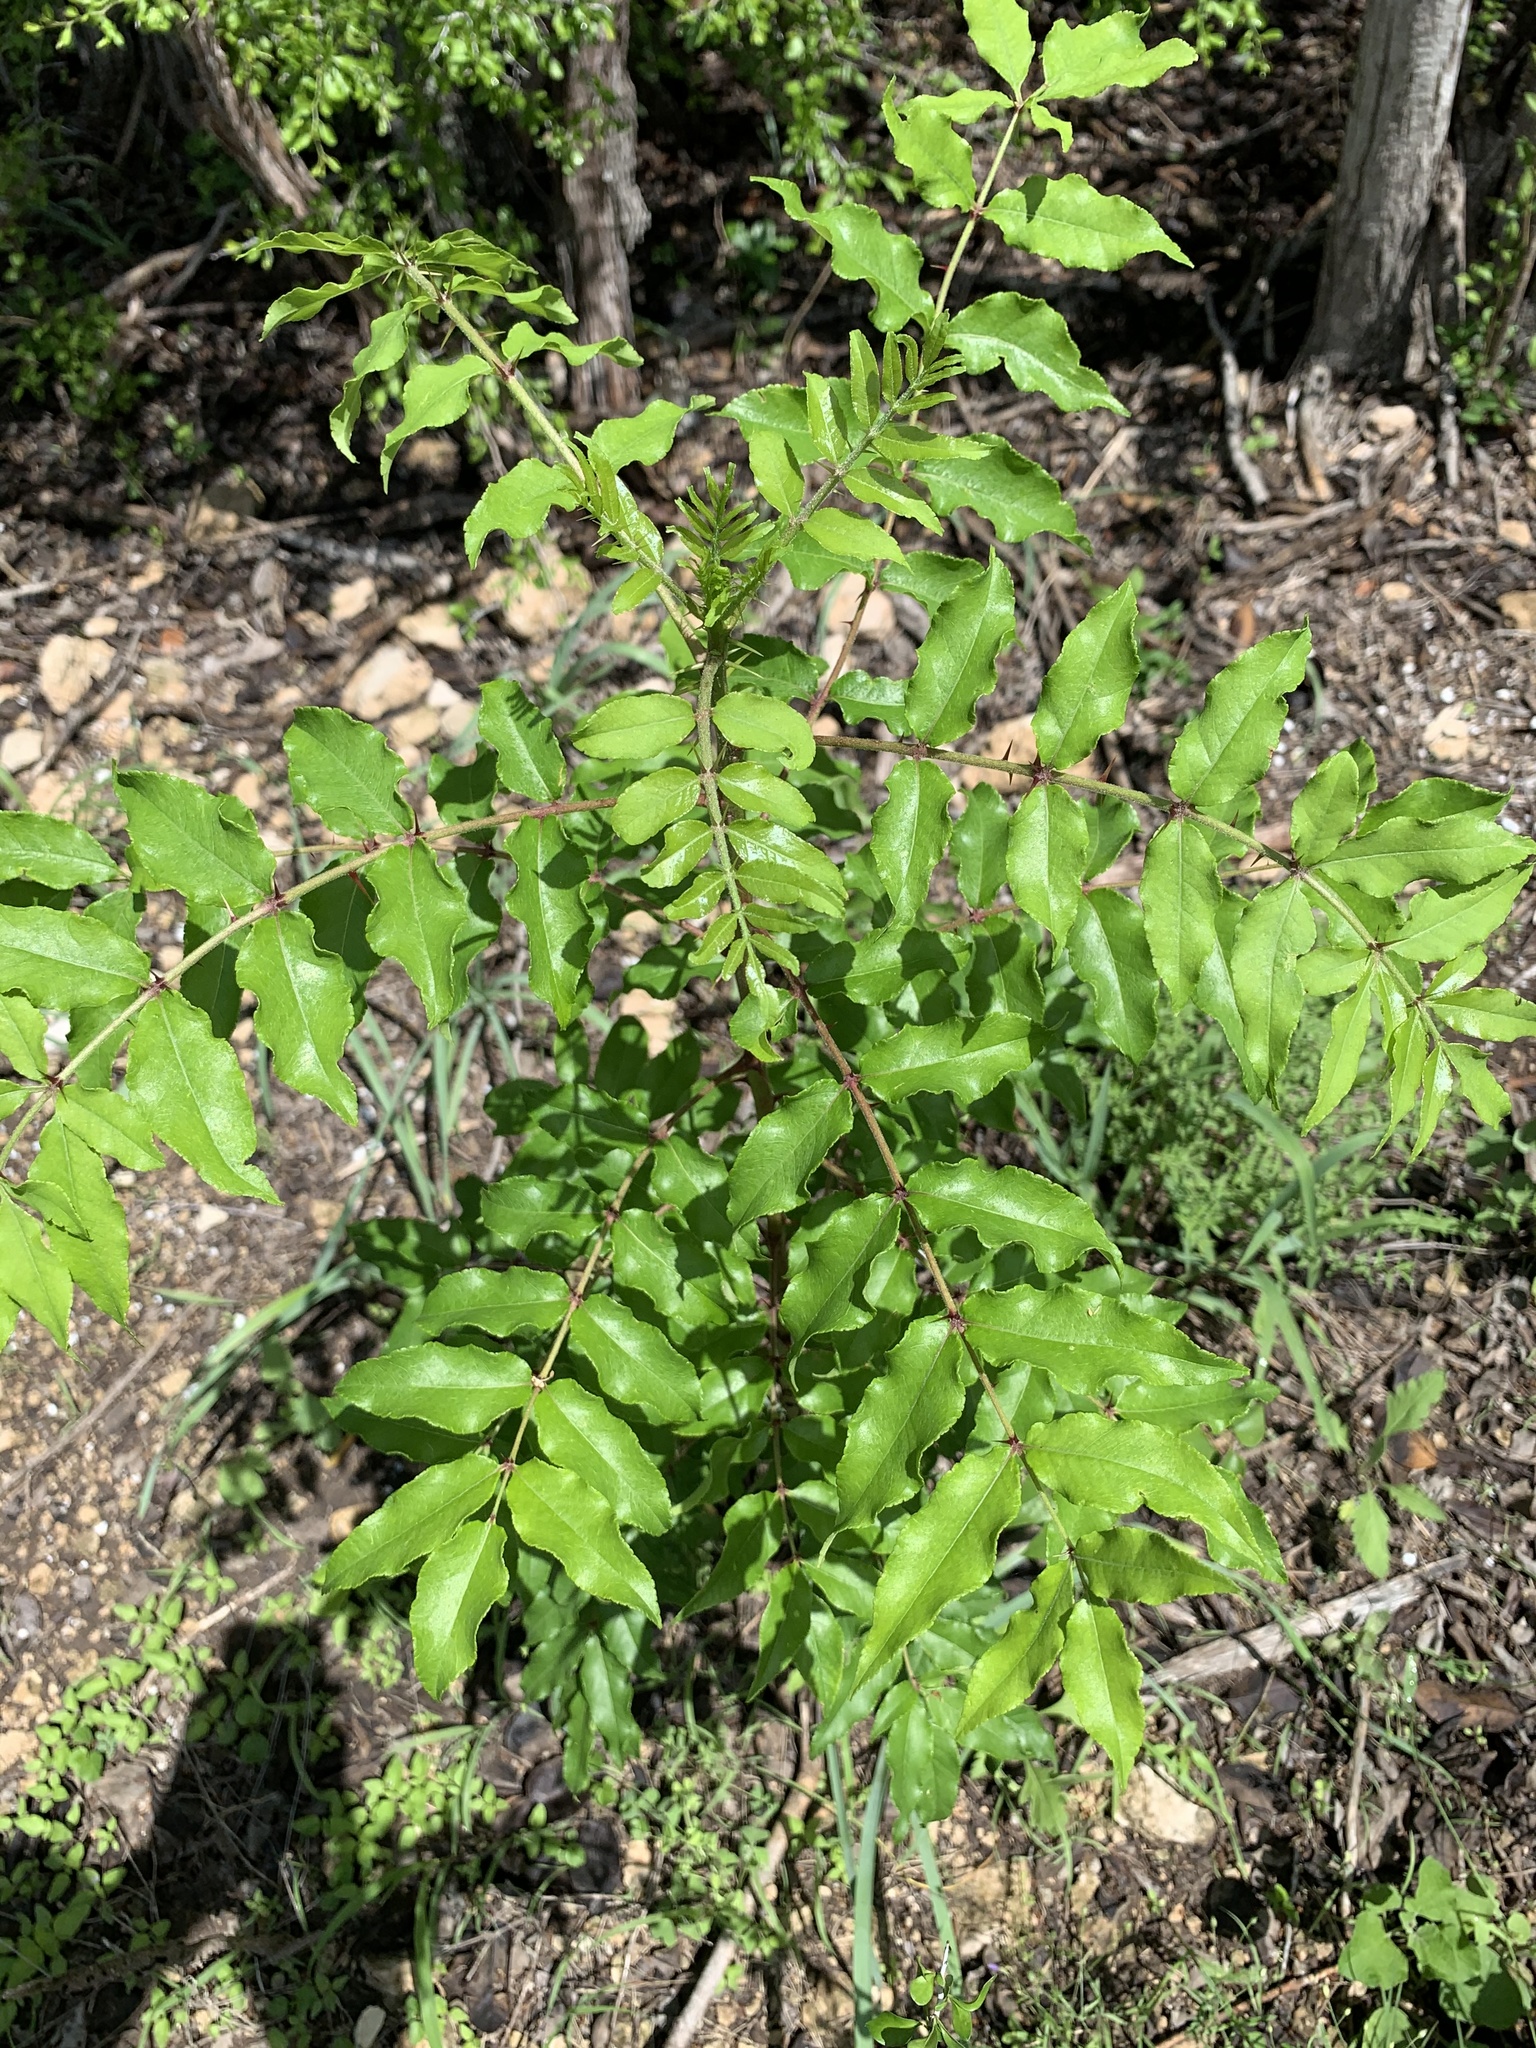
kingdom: Plantae
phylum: Tracheophyta
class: Magnoliopsida
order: Sapindales
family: Rutaceae
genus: Zanthoxylum
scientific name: Zanthoxylum clava-herculis
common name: Hercules'-club
